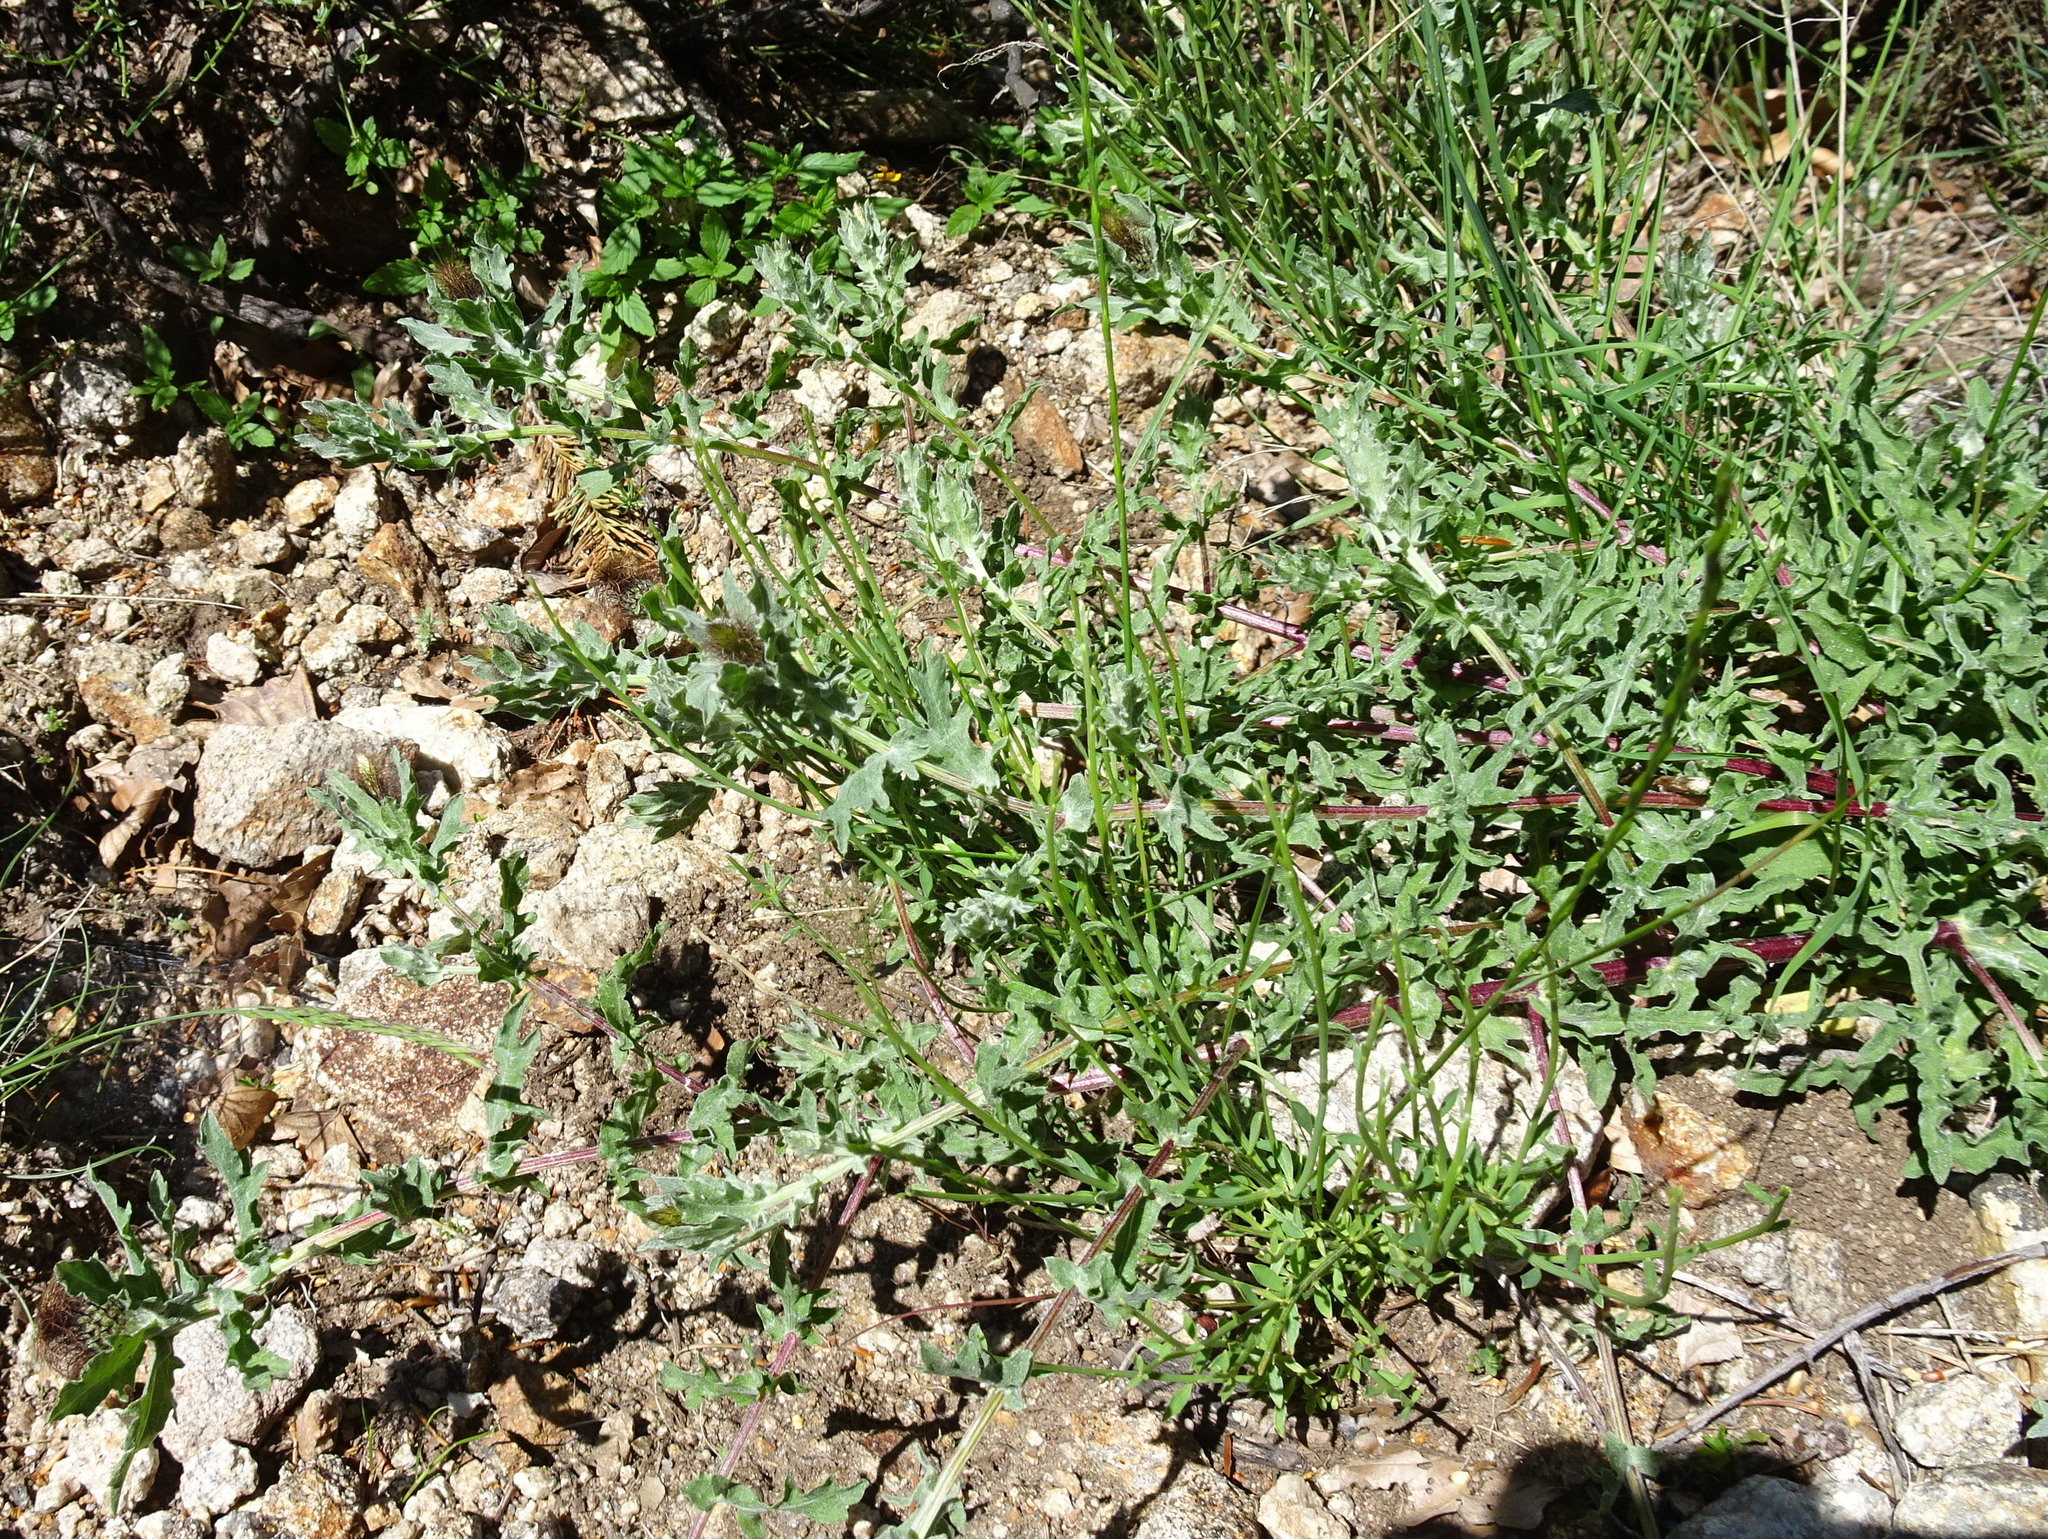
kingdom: Plantae
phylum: Tracheophyta
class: Magnoliopsida
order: Asterales
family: Asteraceae
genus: Centaurea
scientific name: Centaurea pectinata
